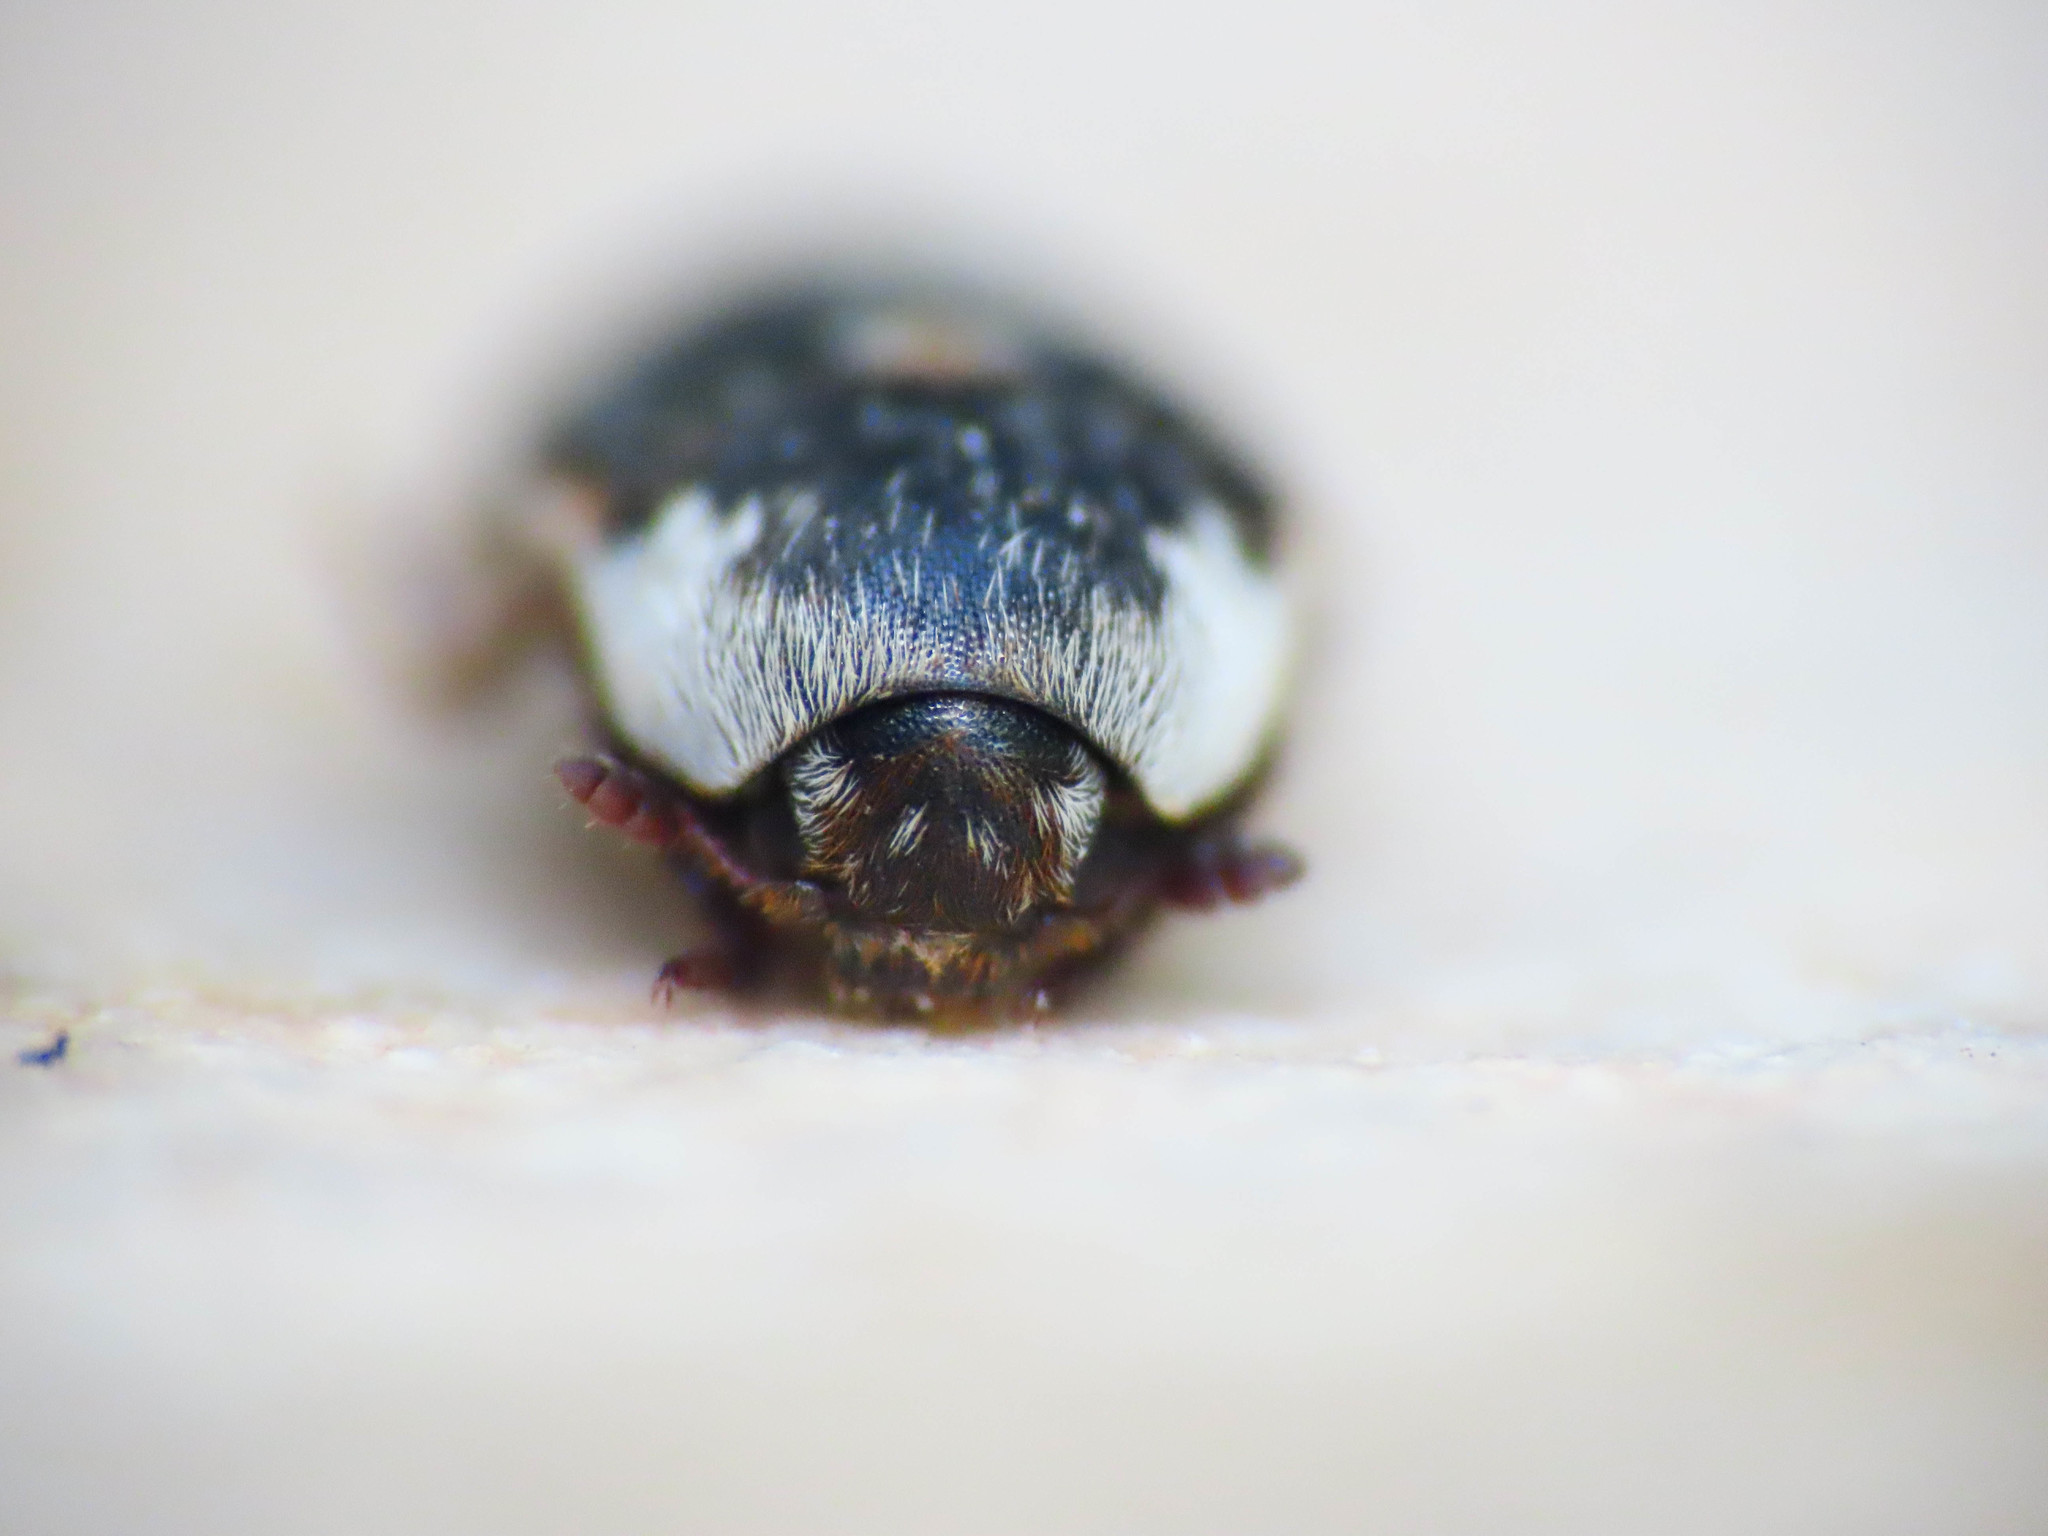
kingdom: Animalia
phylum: Arthropoda
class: Insecta
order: Coleoptera
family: Dermestidae
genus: Dermestes
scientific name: Dermestes frischi
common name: Frisch's carpet beetle
